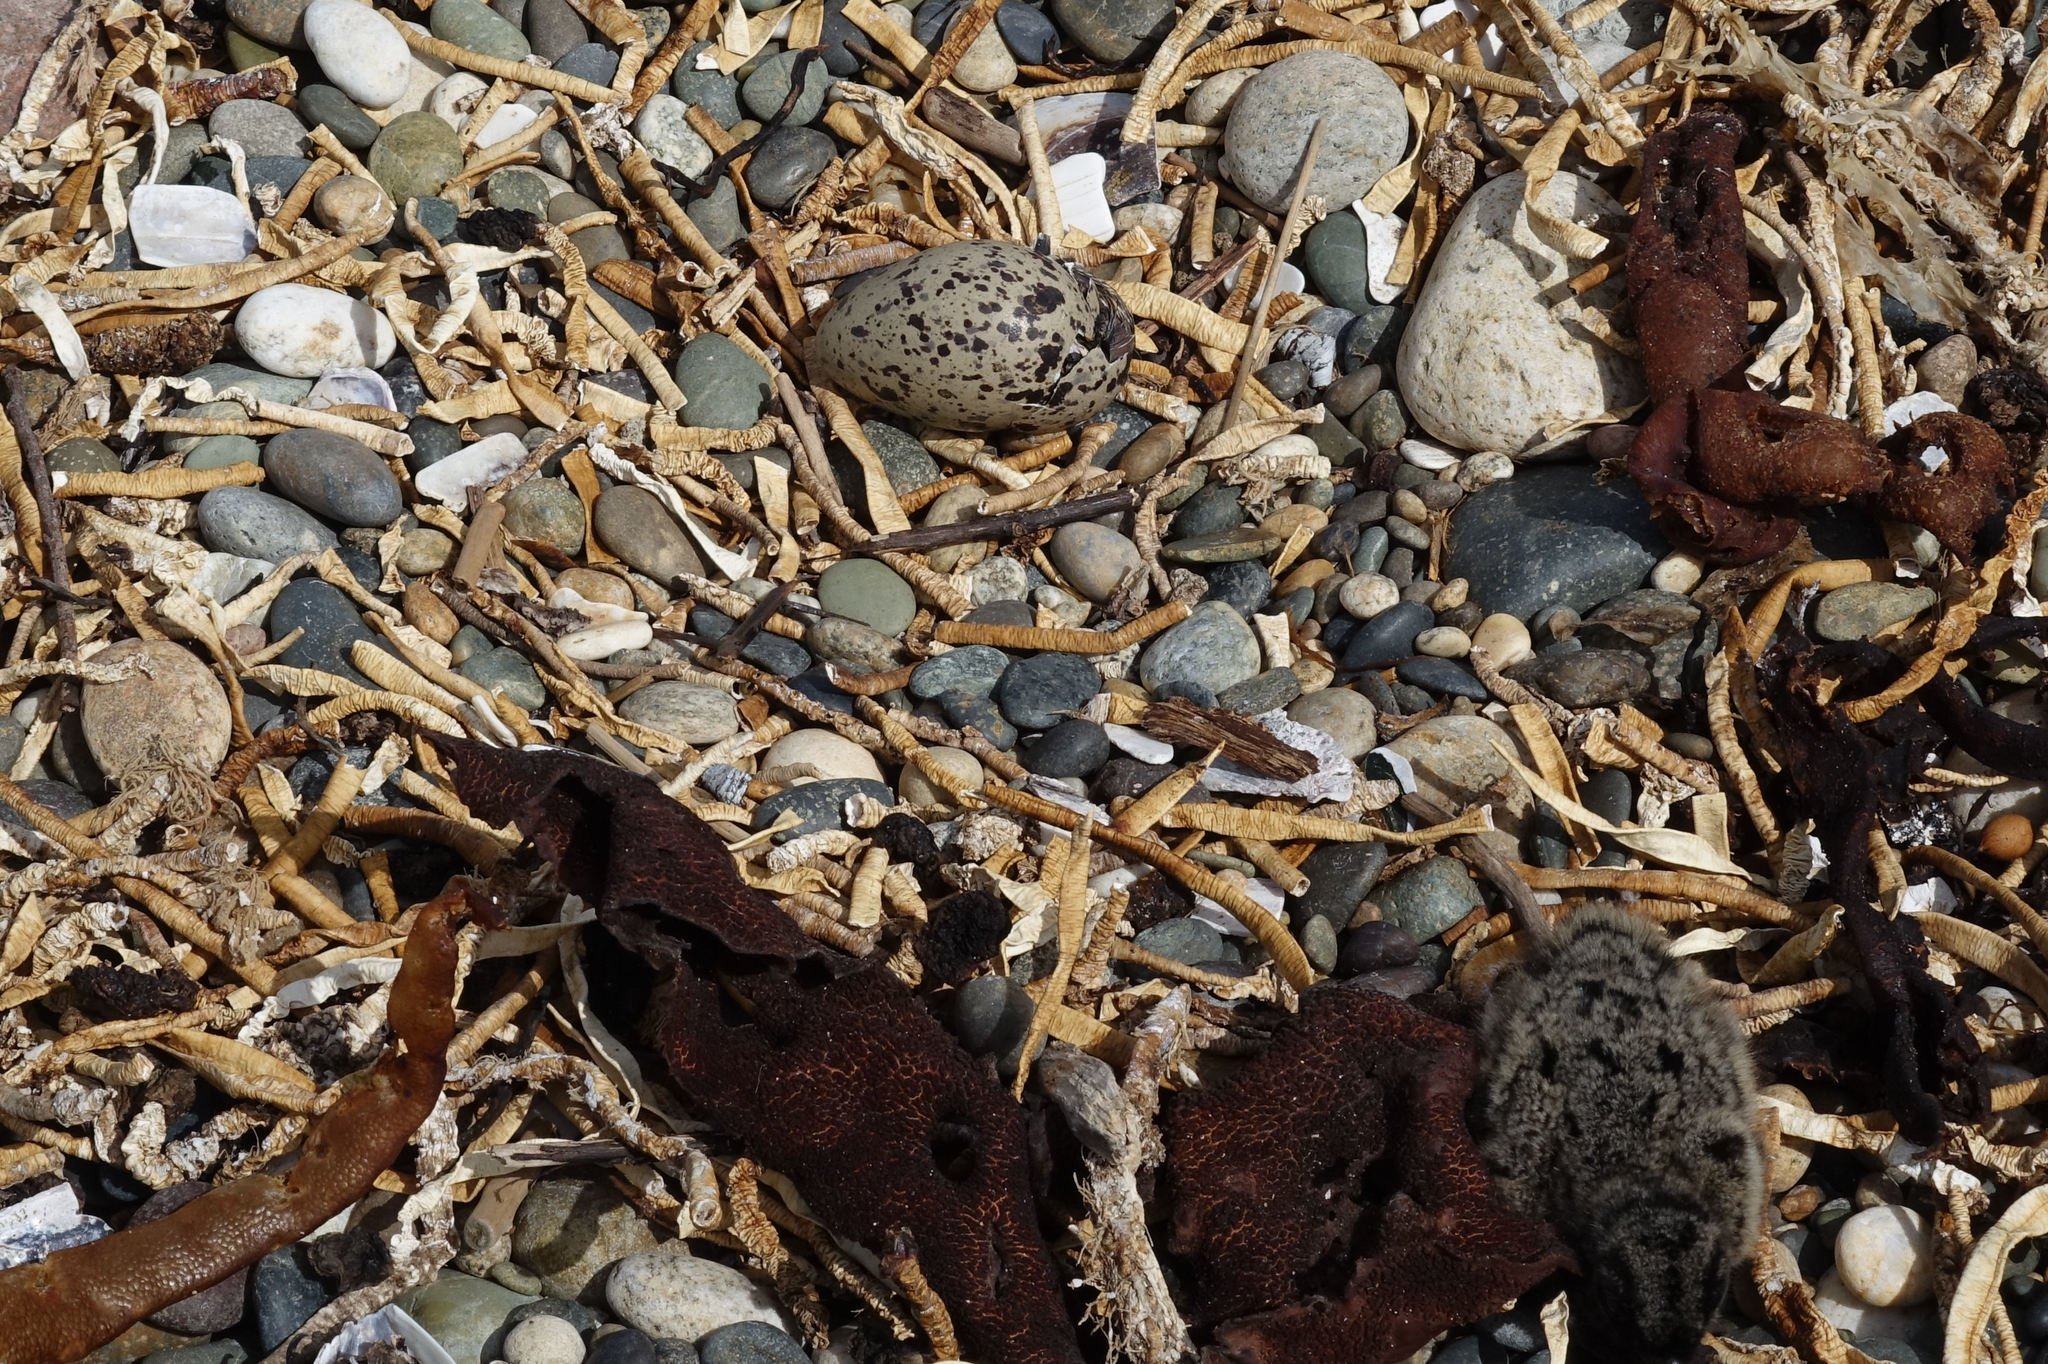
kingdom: Animalia
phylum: Chordata
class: Aves
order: Charadriiformes
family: Haematopodidae
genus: Haematopus
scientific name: Haematopus unicolor
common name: Variable oystercatcher
